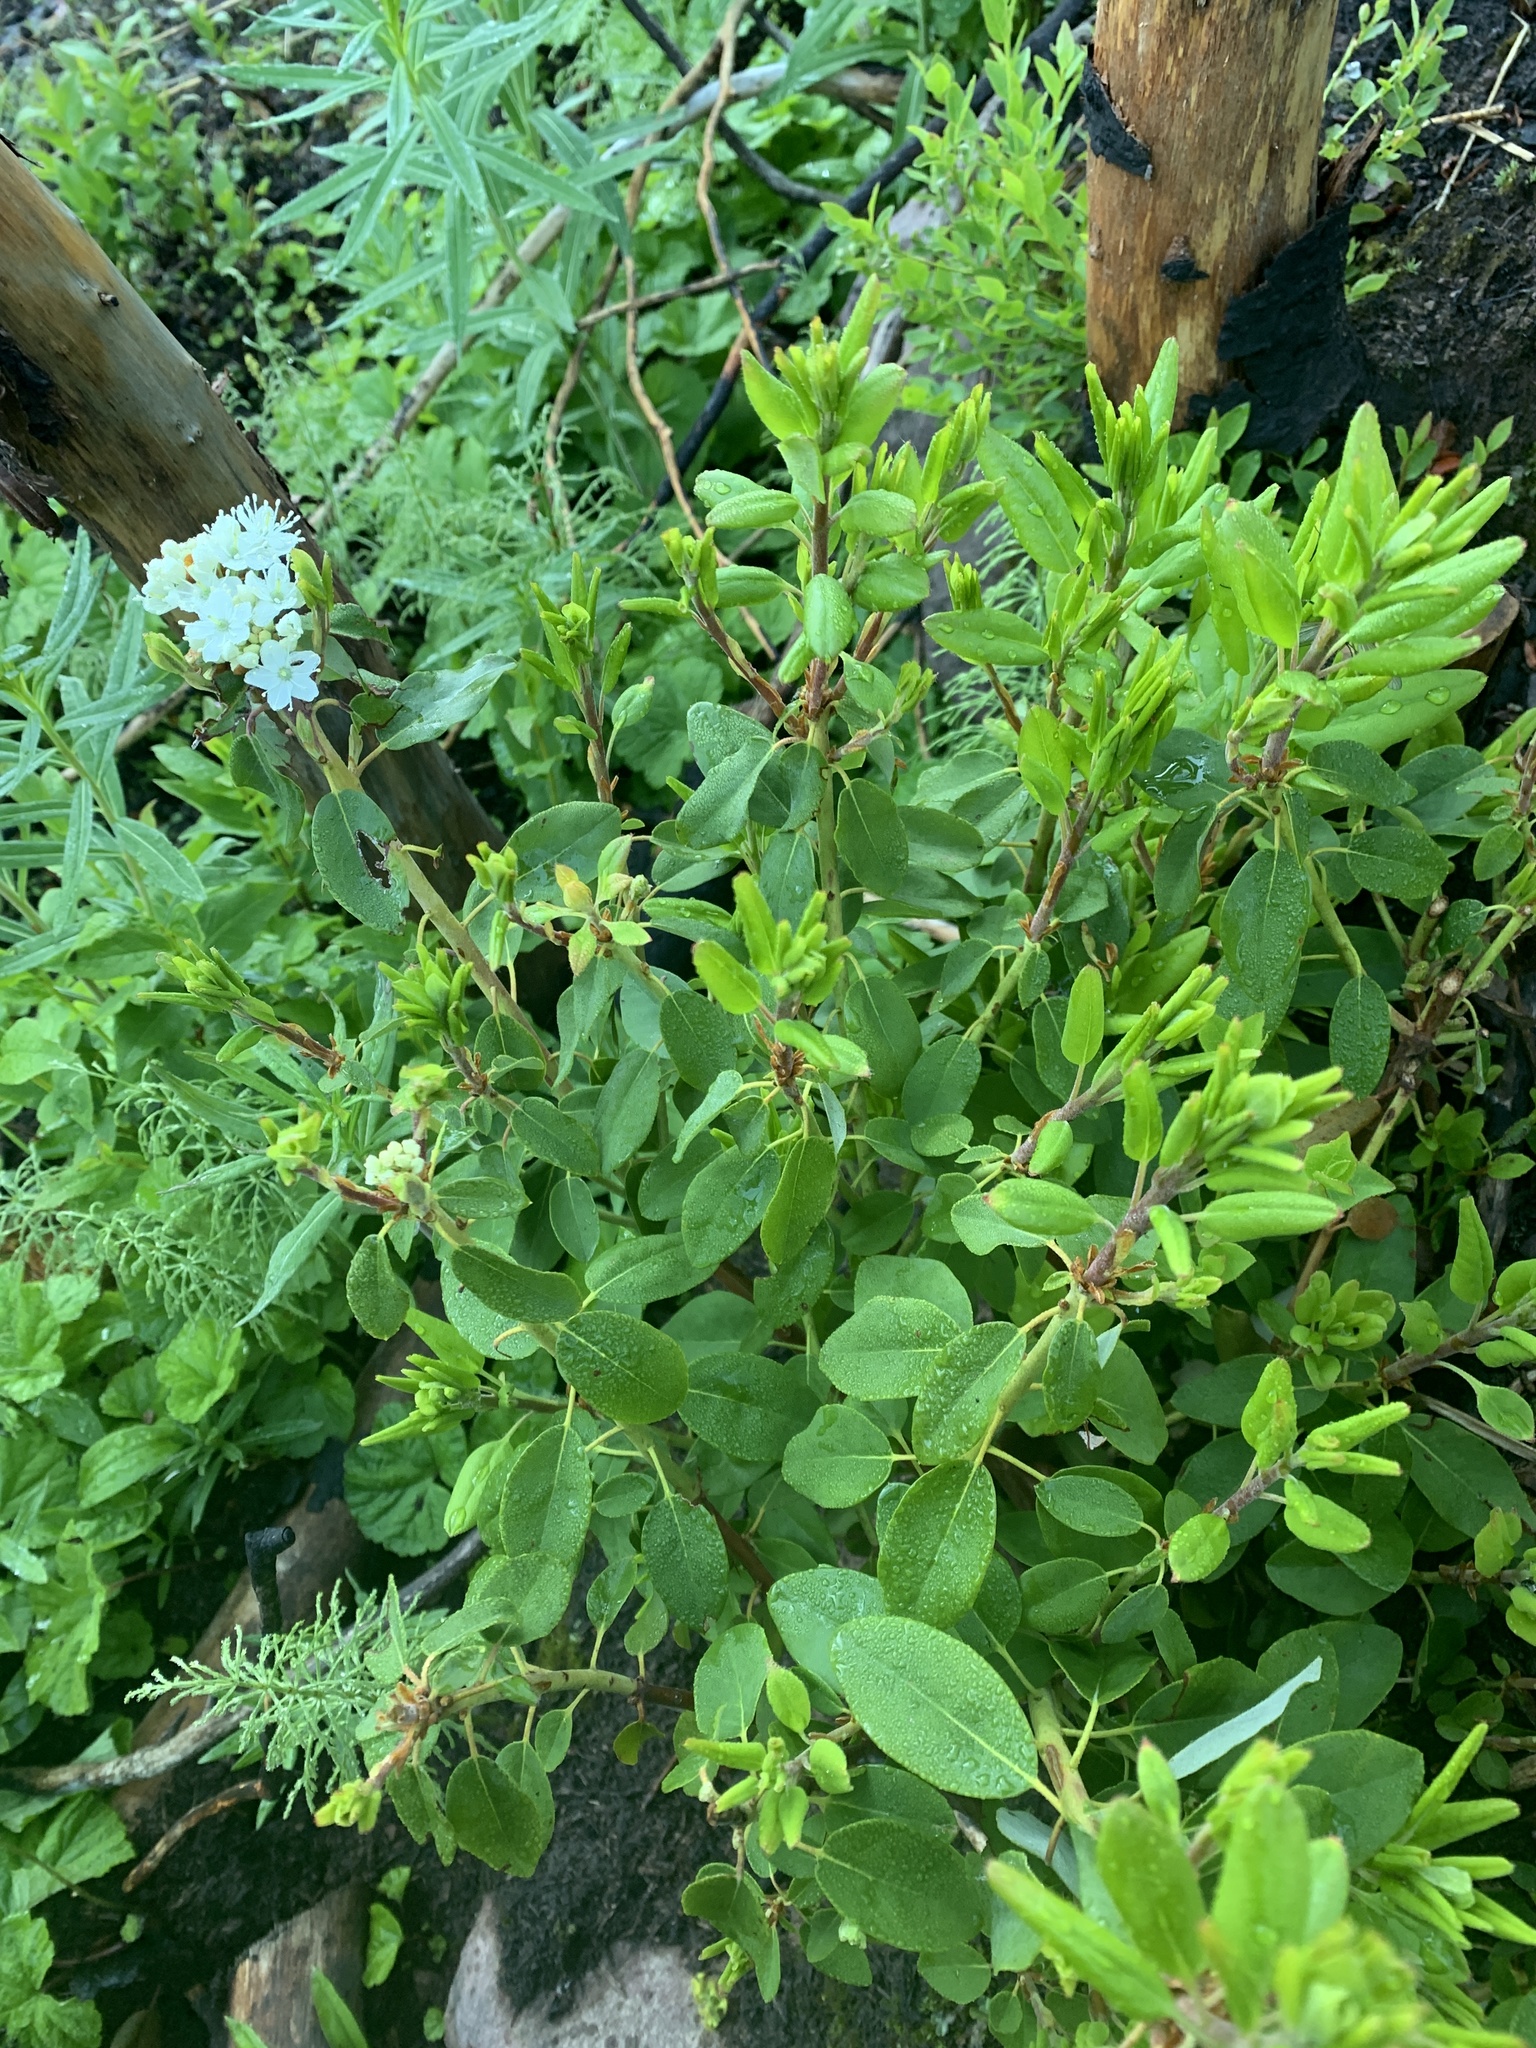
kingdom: Plantae
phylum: Tracheophyta
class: Magnoliopsida
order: Ericales
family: Ericaceae
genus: Rhododendron
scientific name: Rhododendron columbianum
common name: Western labrador tea
